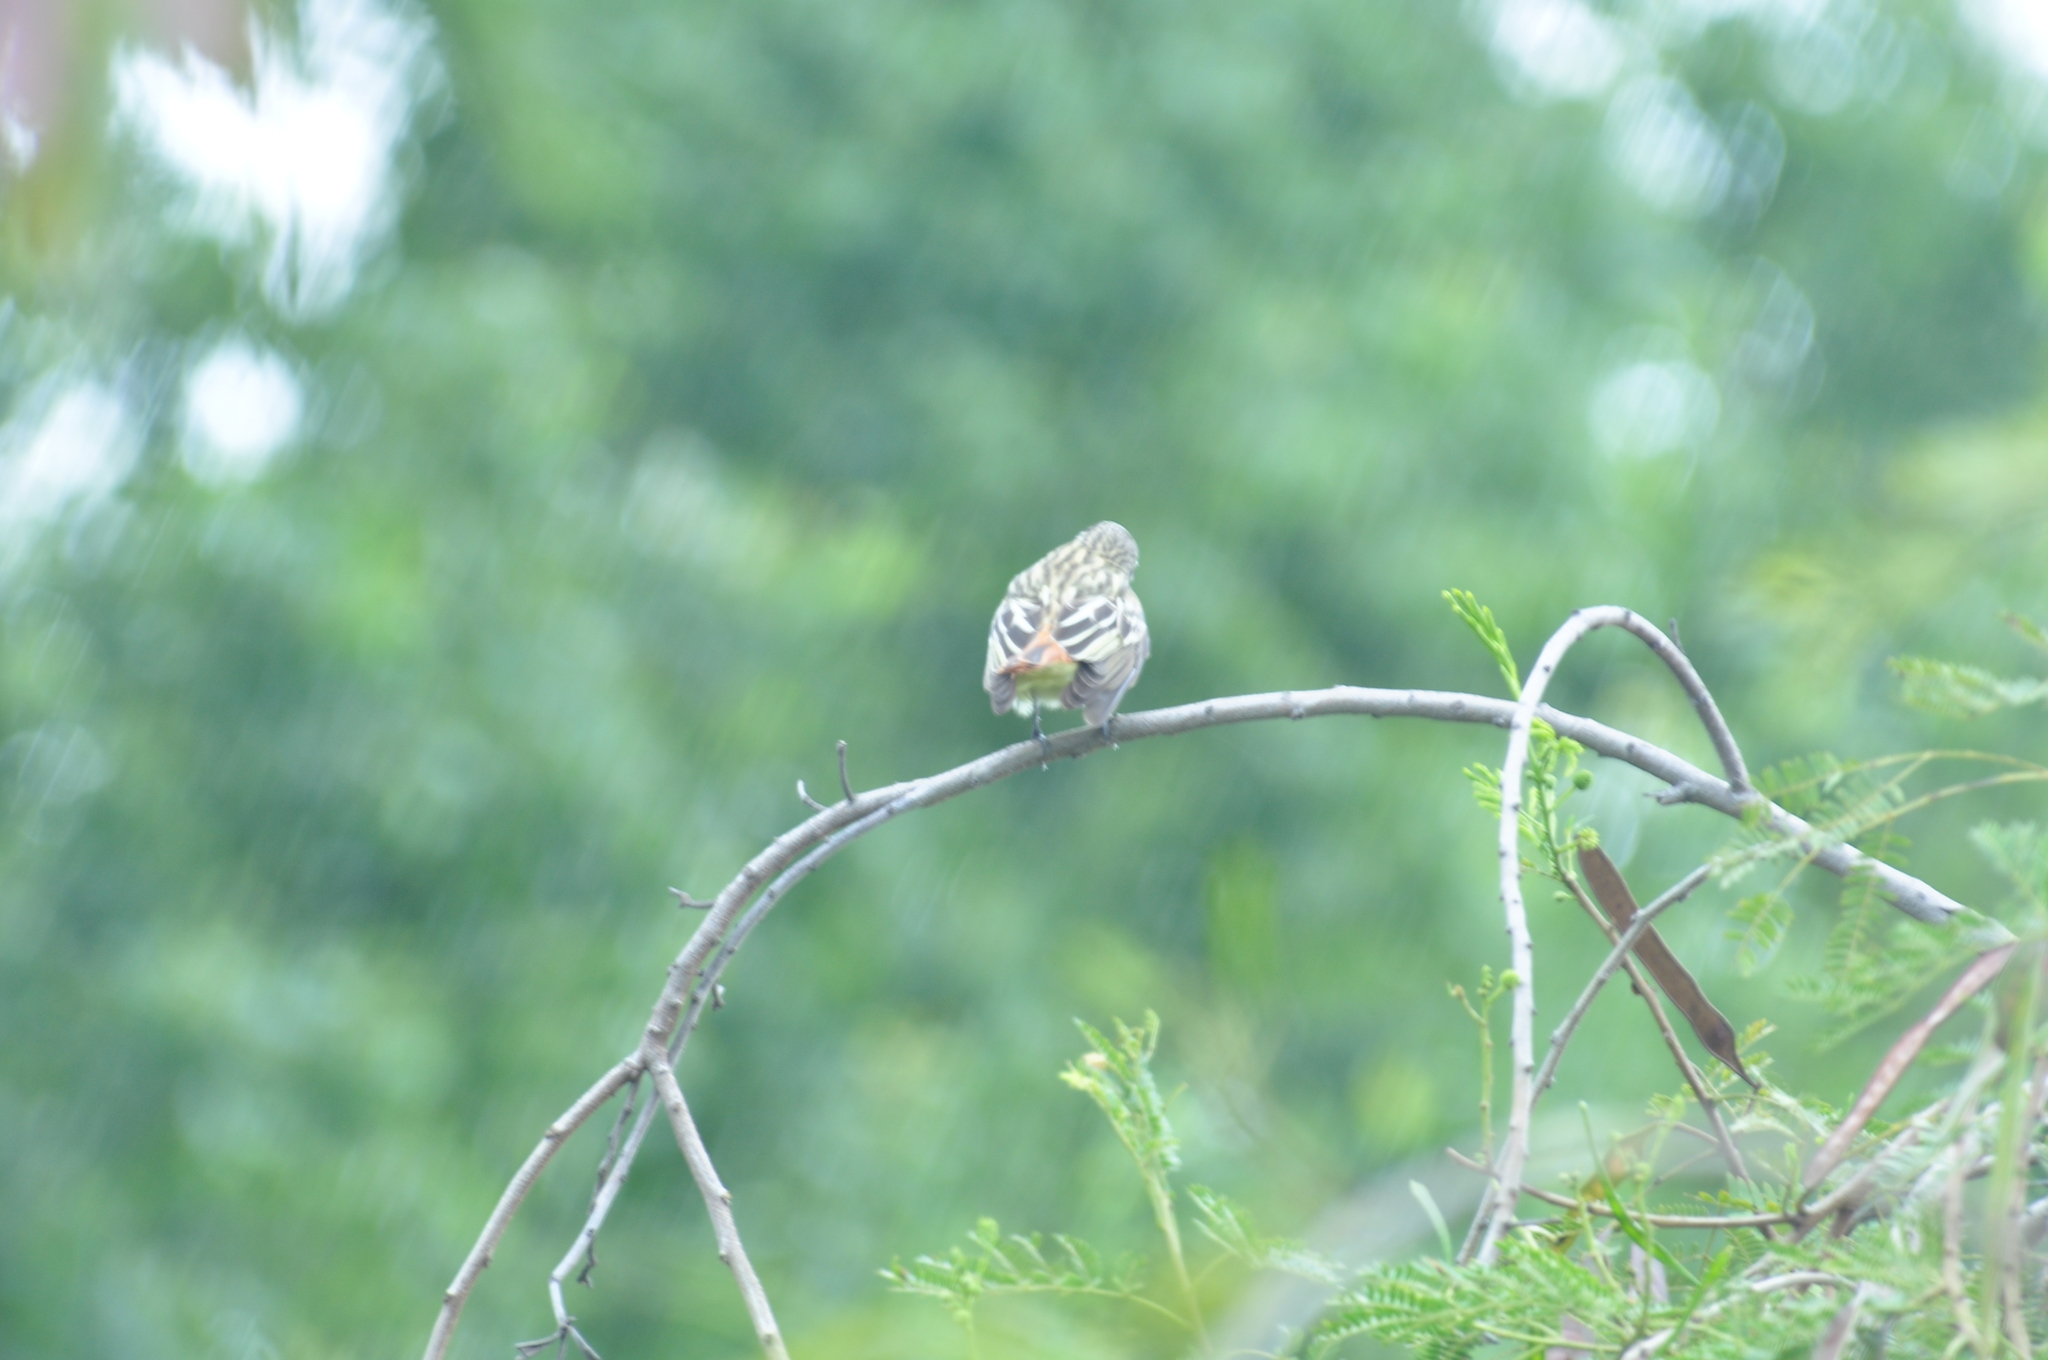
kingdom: Animalia
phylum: Chordata
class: Aves
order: Passeriformes
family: Tyrannidae
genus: Myiodynastes
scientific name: Myiodynastes luteiventris
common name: Sulphur-bellied flycatcher
